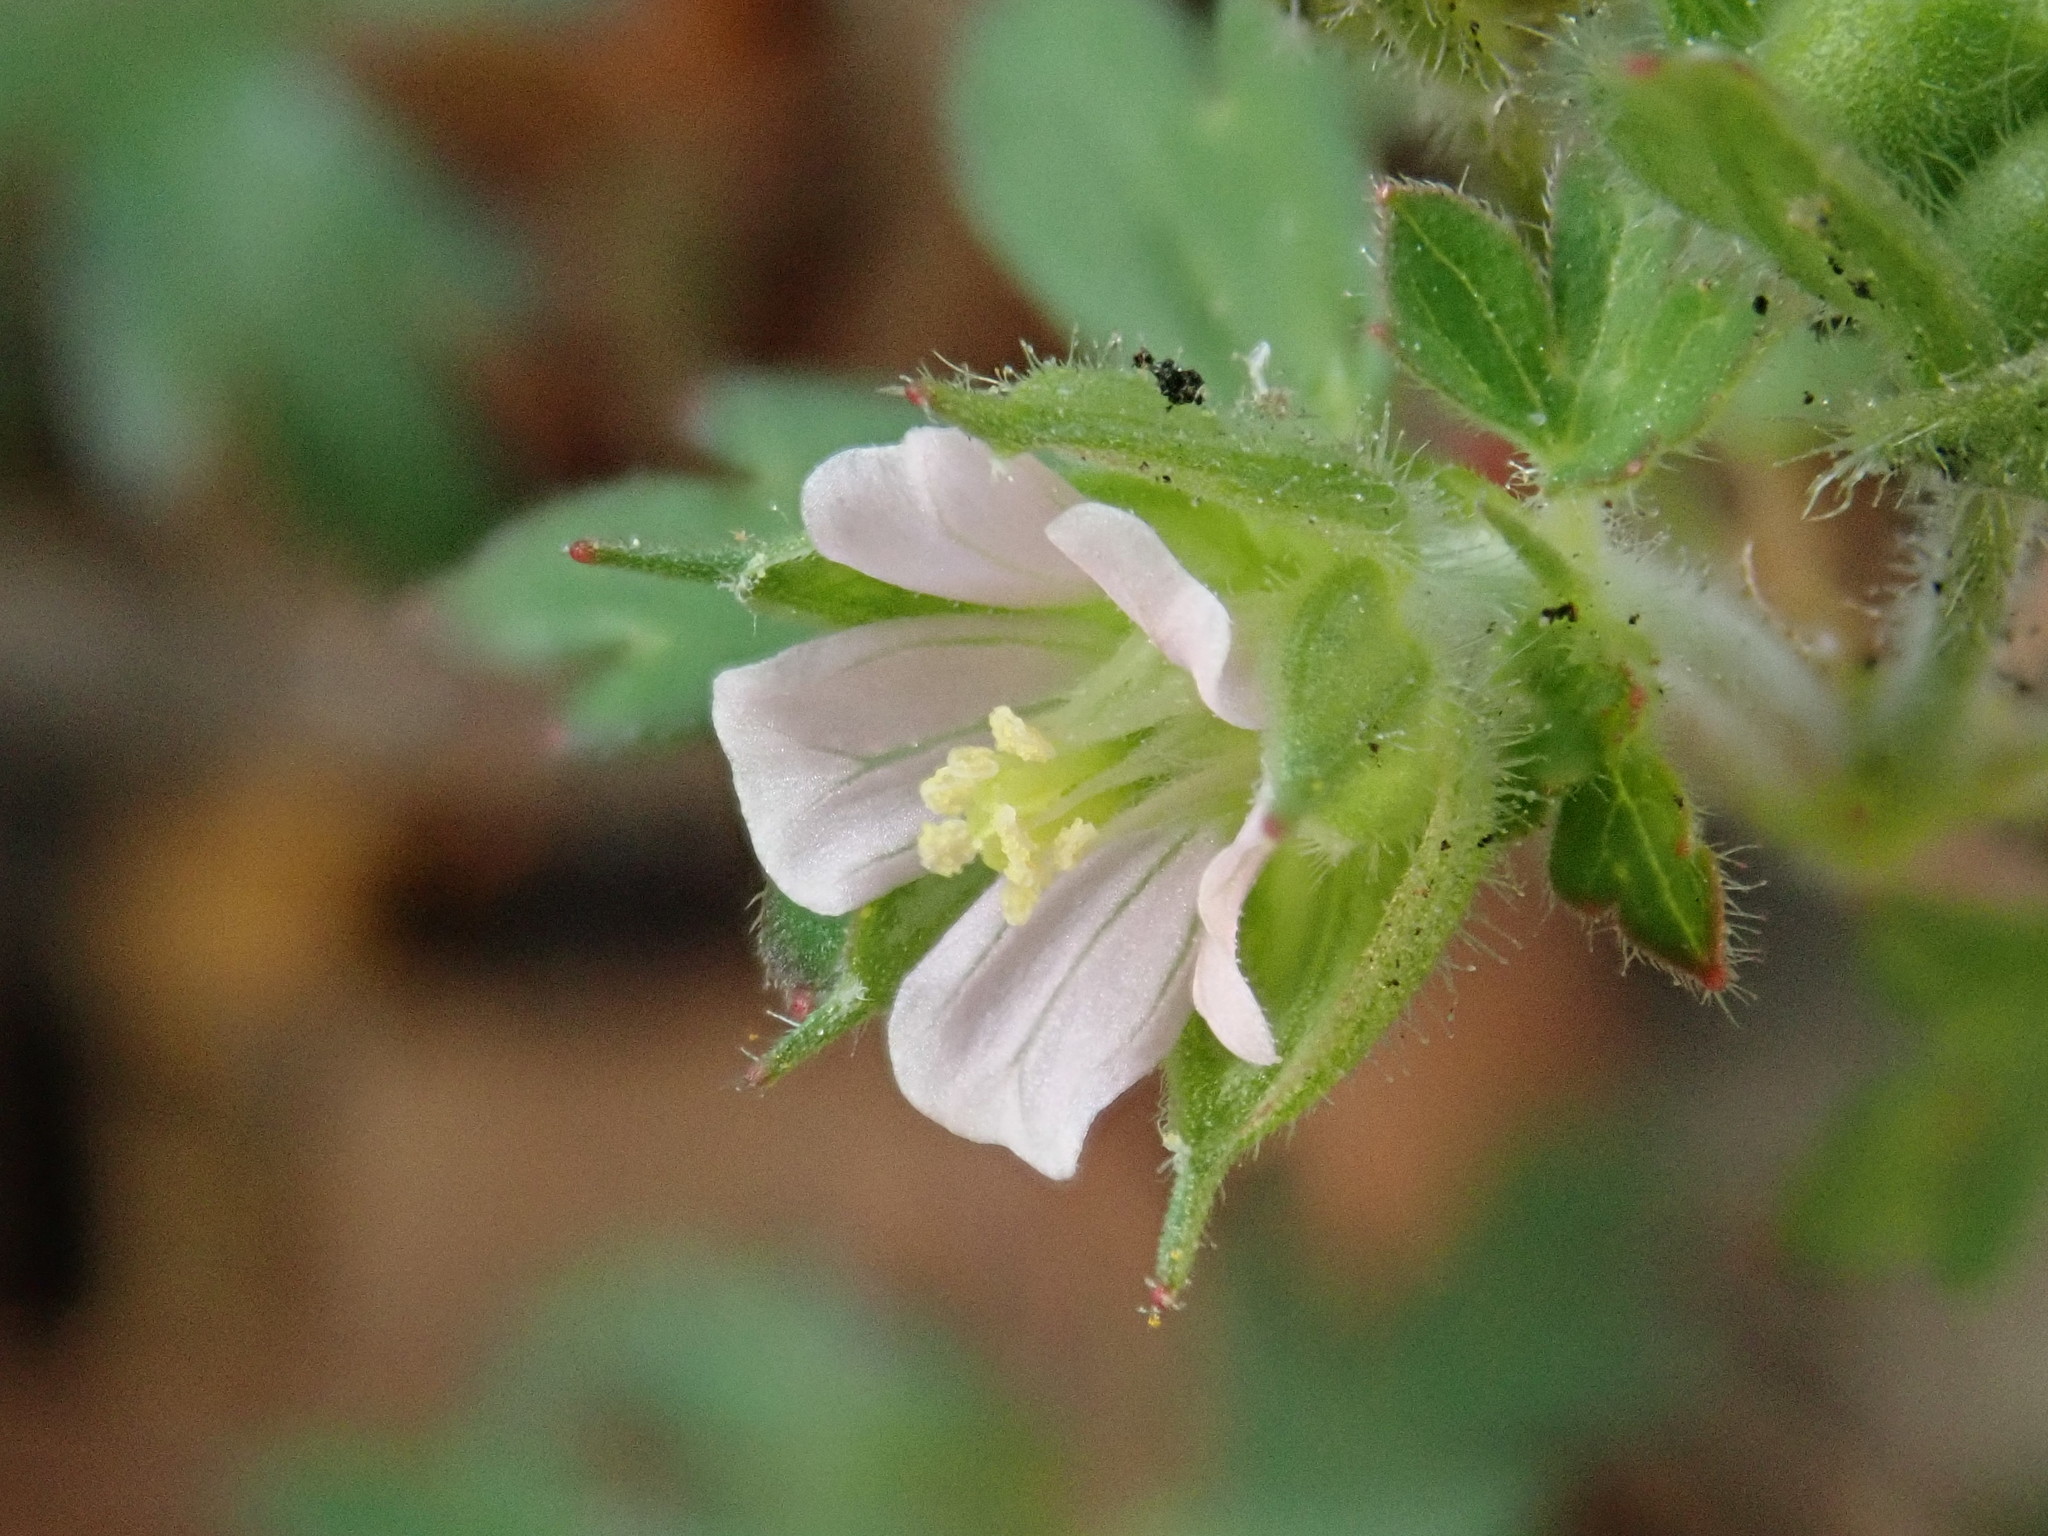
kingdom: Plantae
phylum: Tracheophyta
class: Magnoliopsida
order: Geraniales
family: Geraniaceae
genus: Geranium
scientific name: Geranium carolinianum
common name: Carolina crane's-bill
